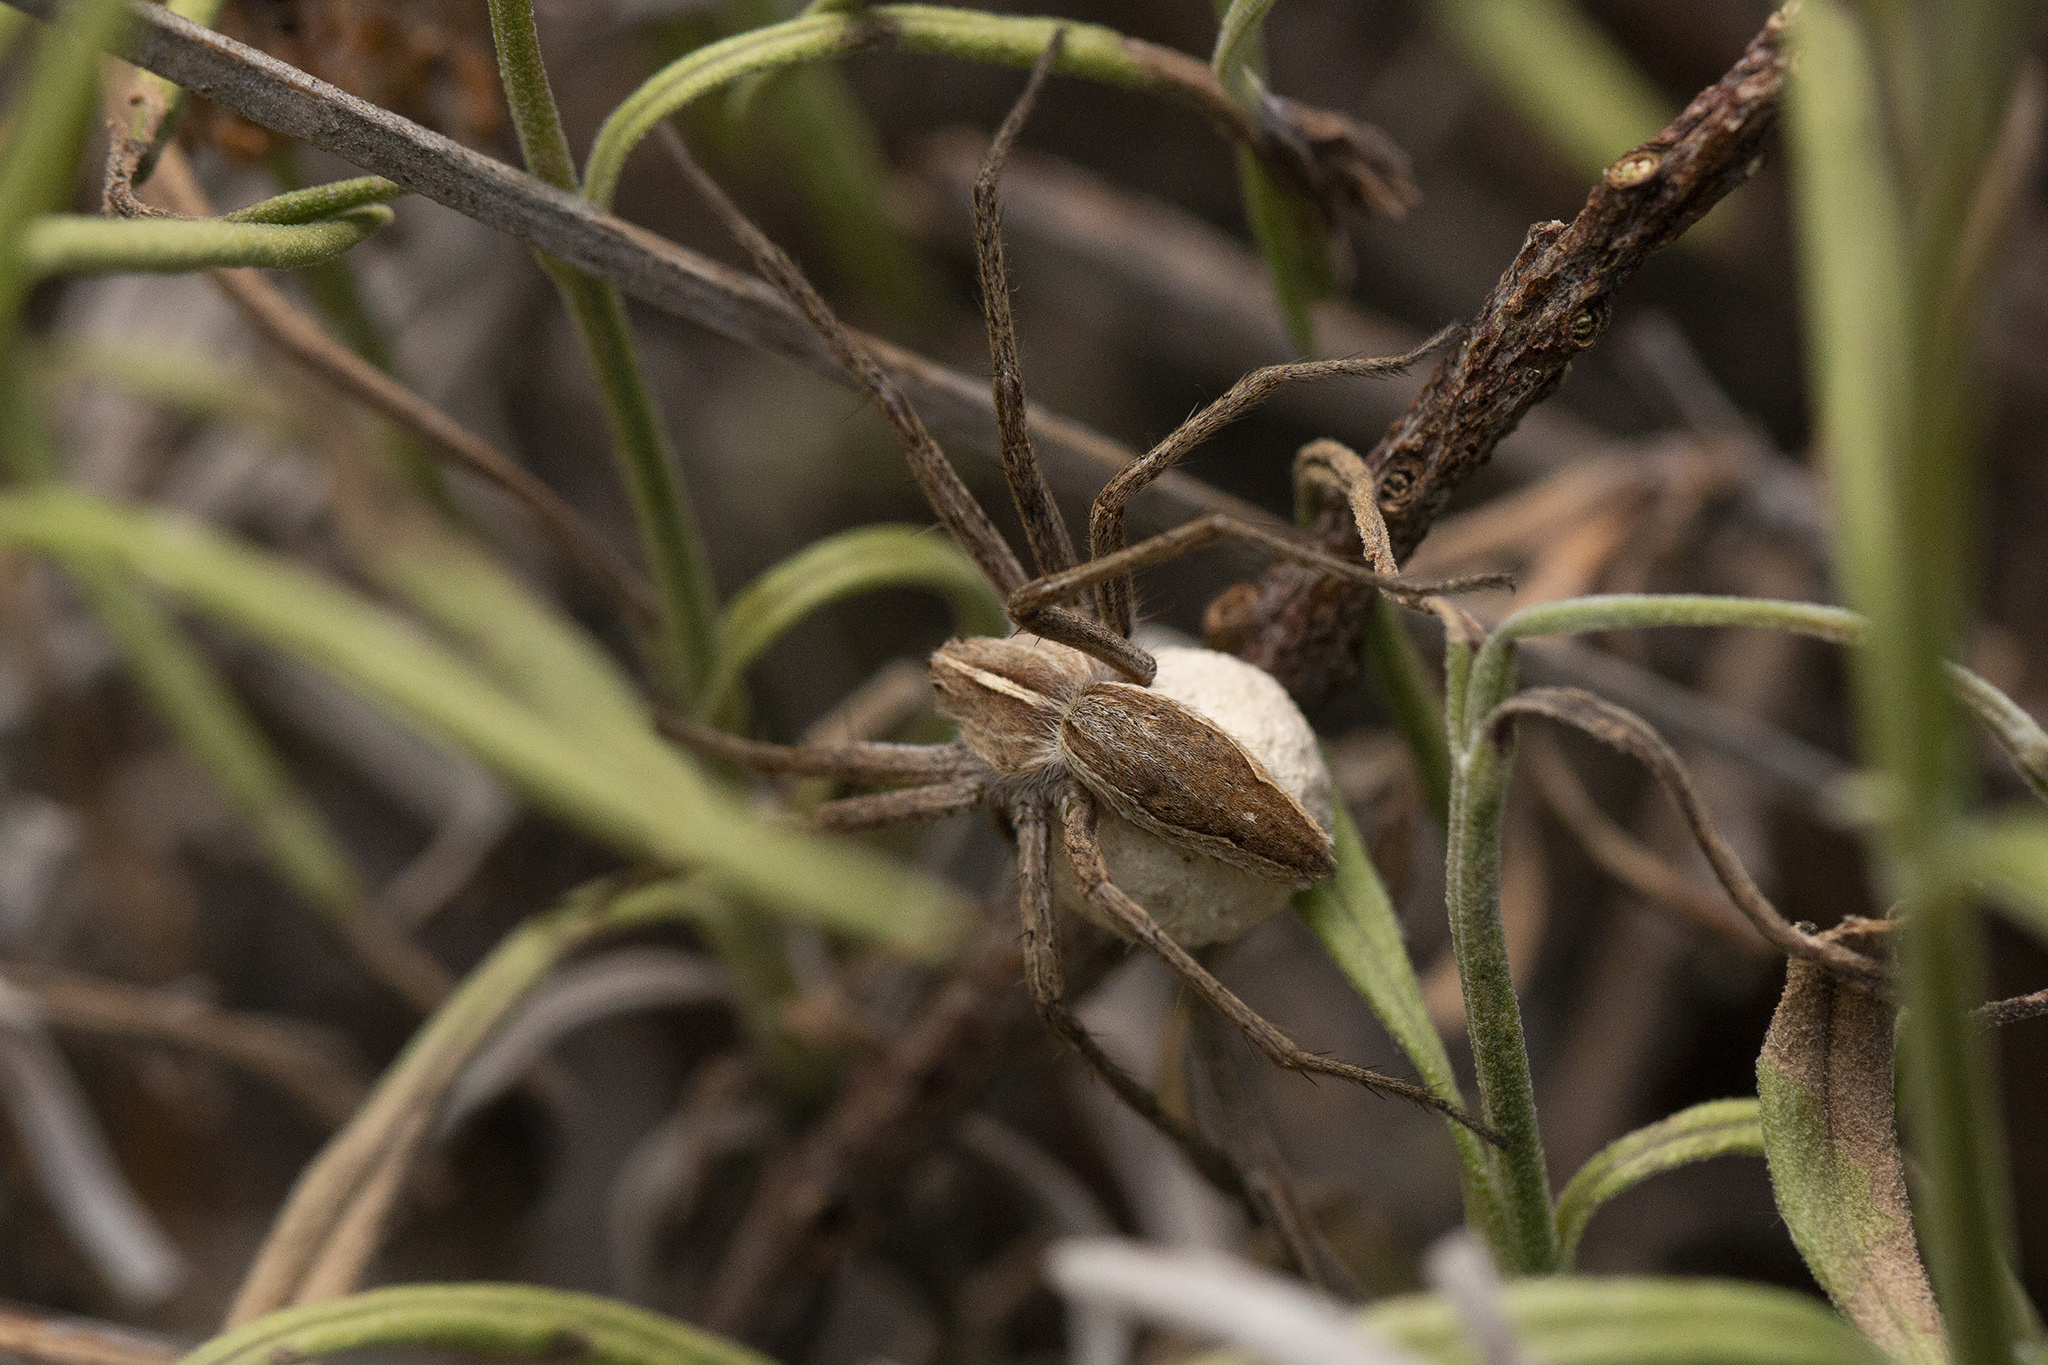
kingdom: Animalia
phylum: Arthropoda
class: Arachnida
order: Araneae
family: Pisauridae
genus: Pisaura
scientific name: Pisaura mirabilis
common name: Tent spider
